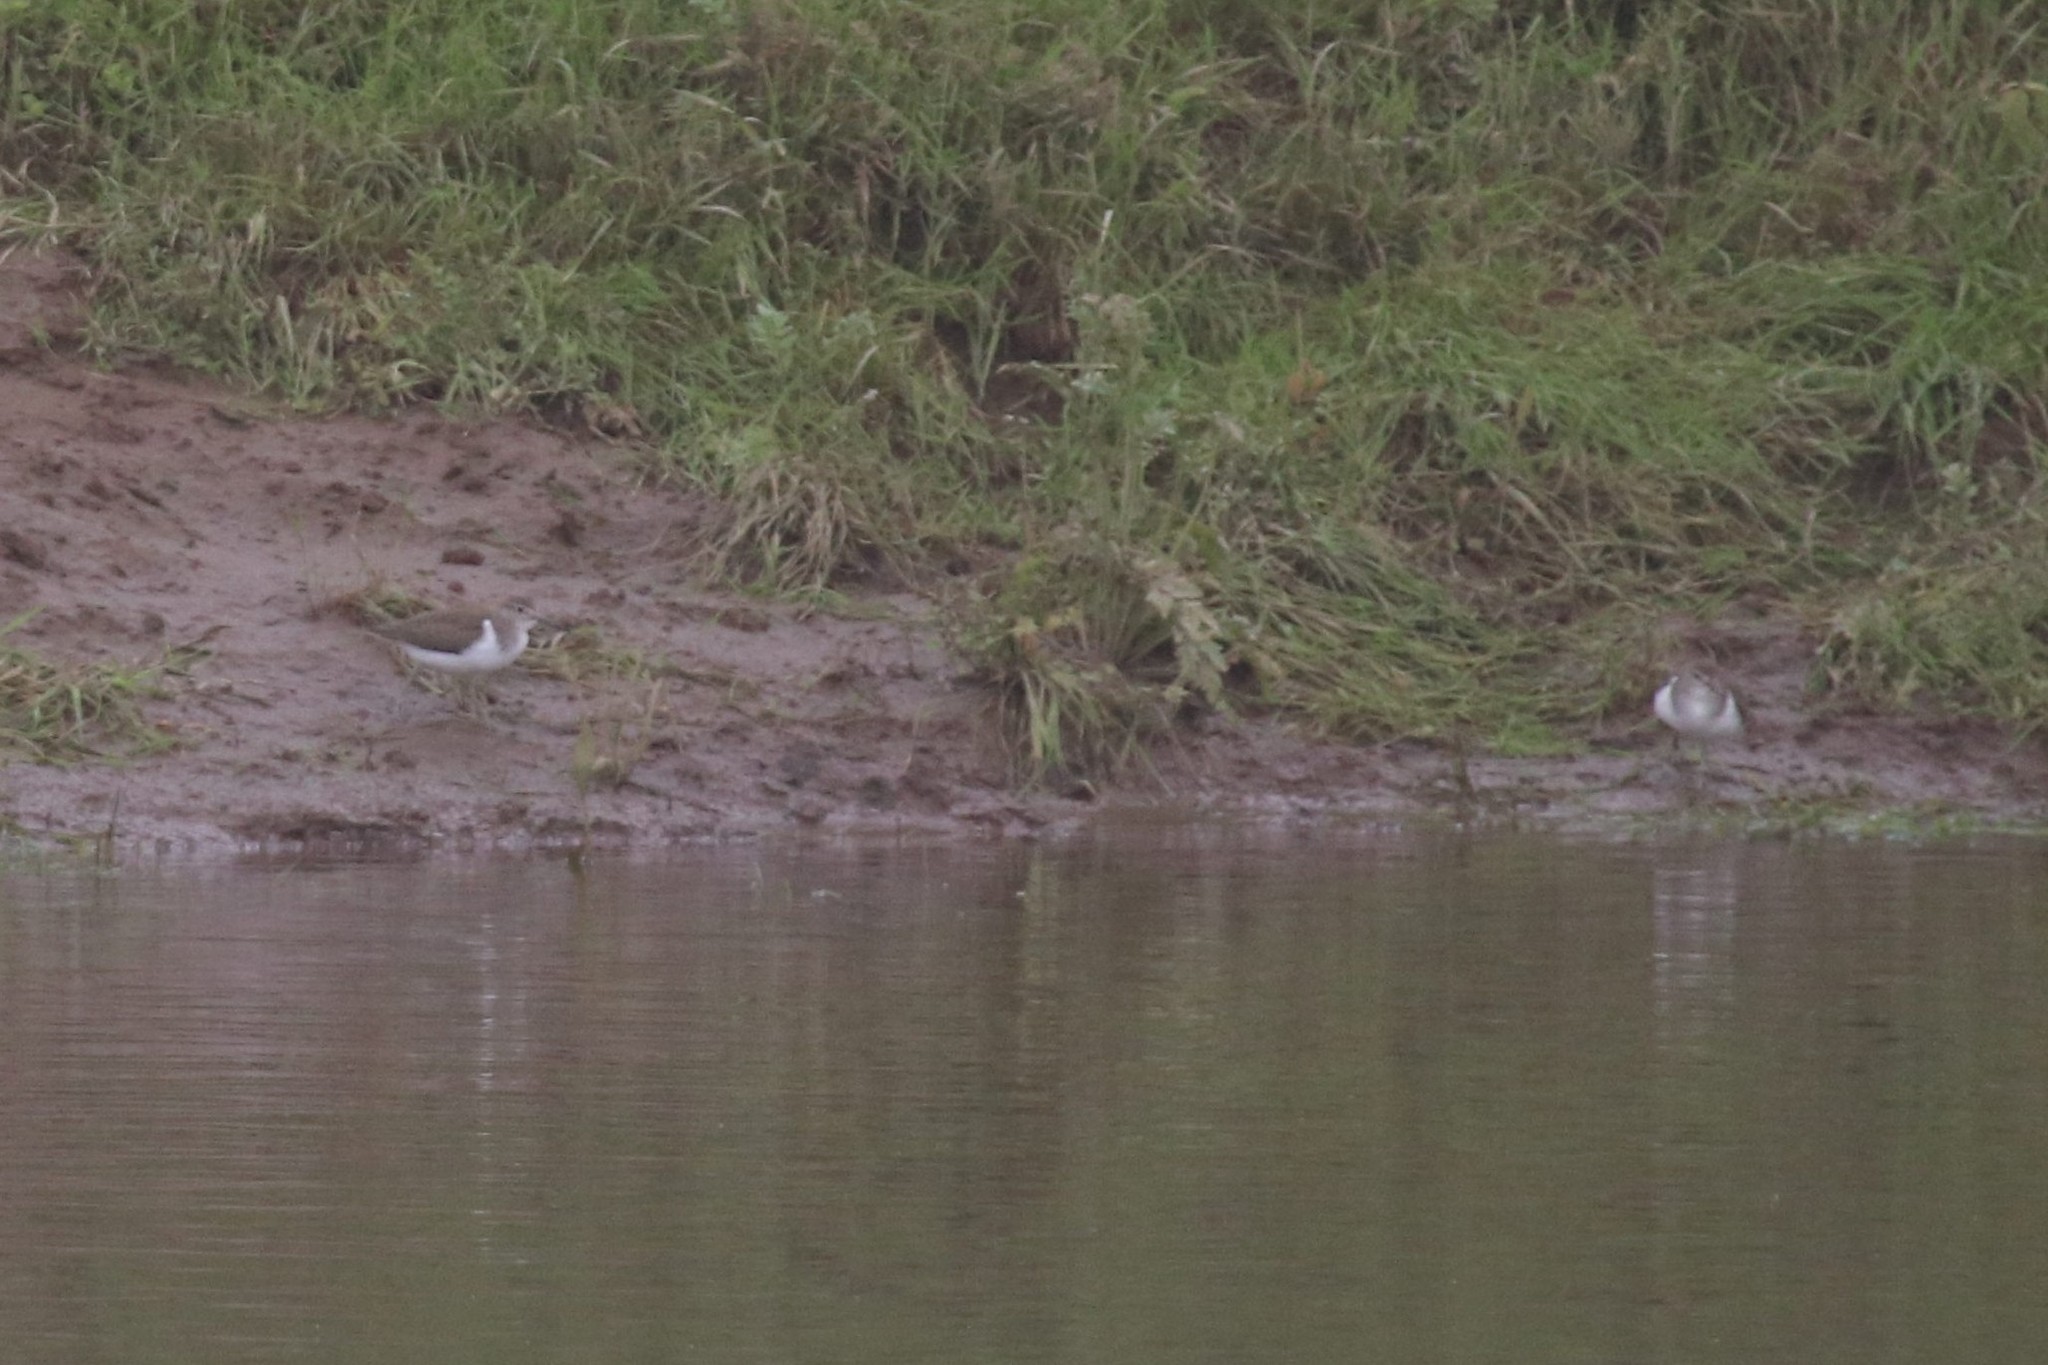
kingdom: Animalia
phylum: Chordata
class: Aves
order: Charadriiformes
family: Scolopacidae
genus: Actitis
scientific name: Actitis hypoleucos
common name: Common sandpiper
